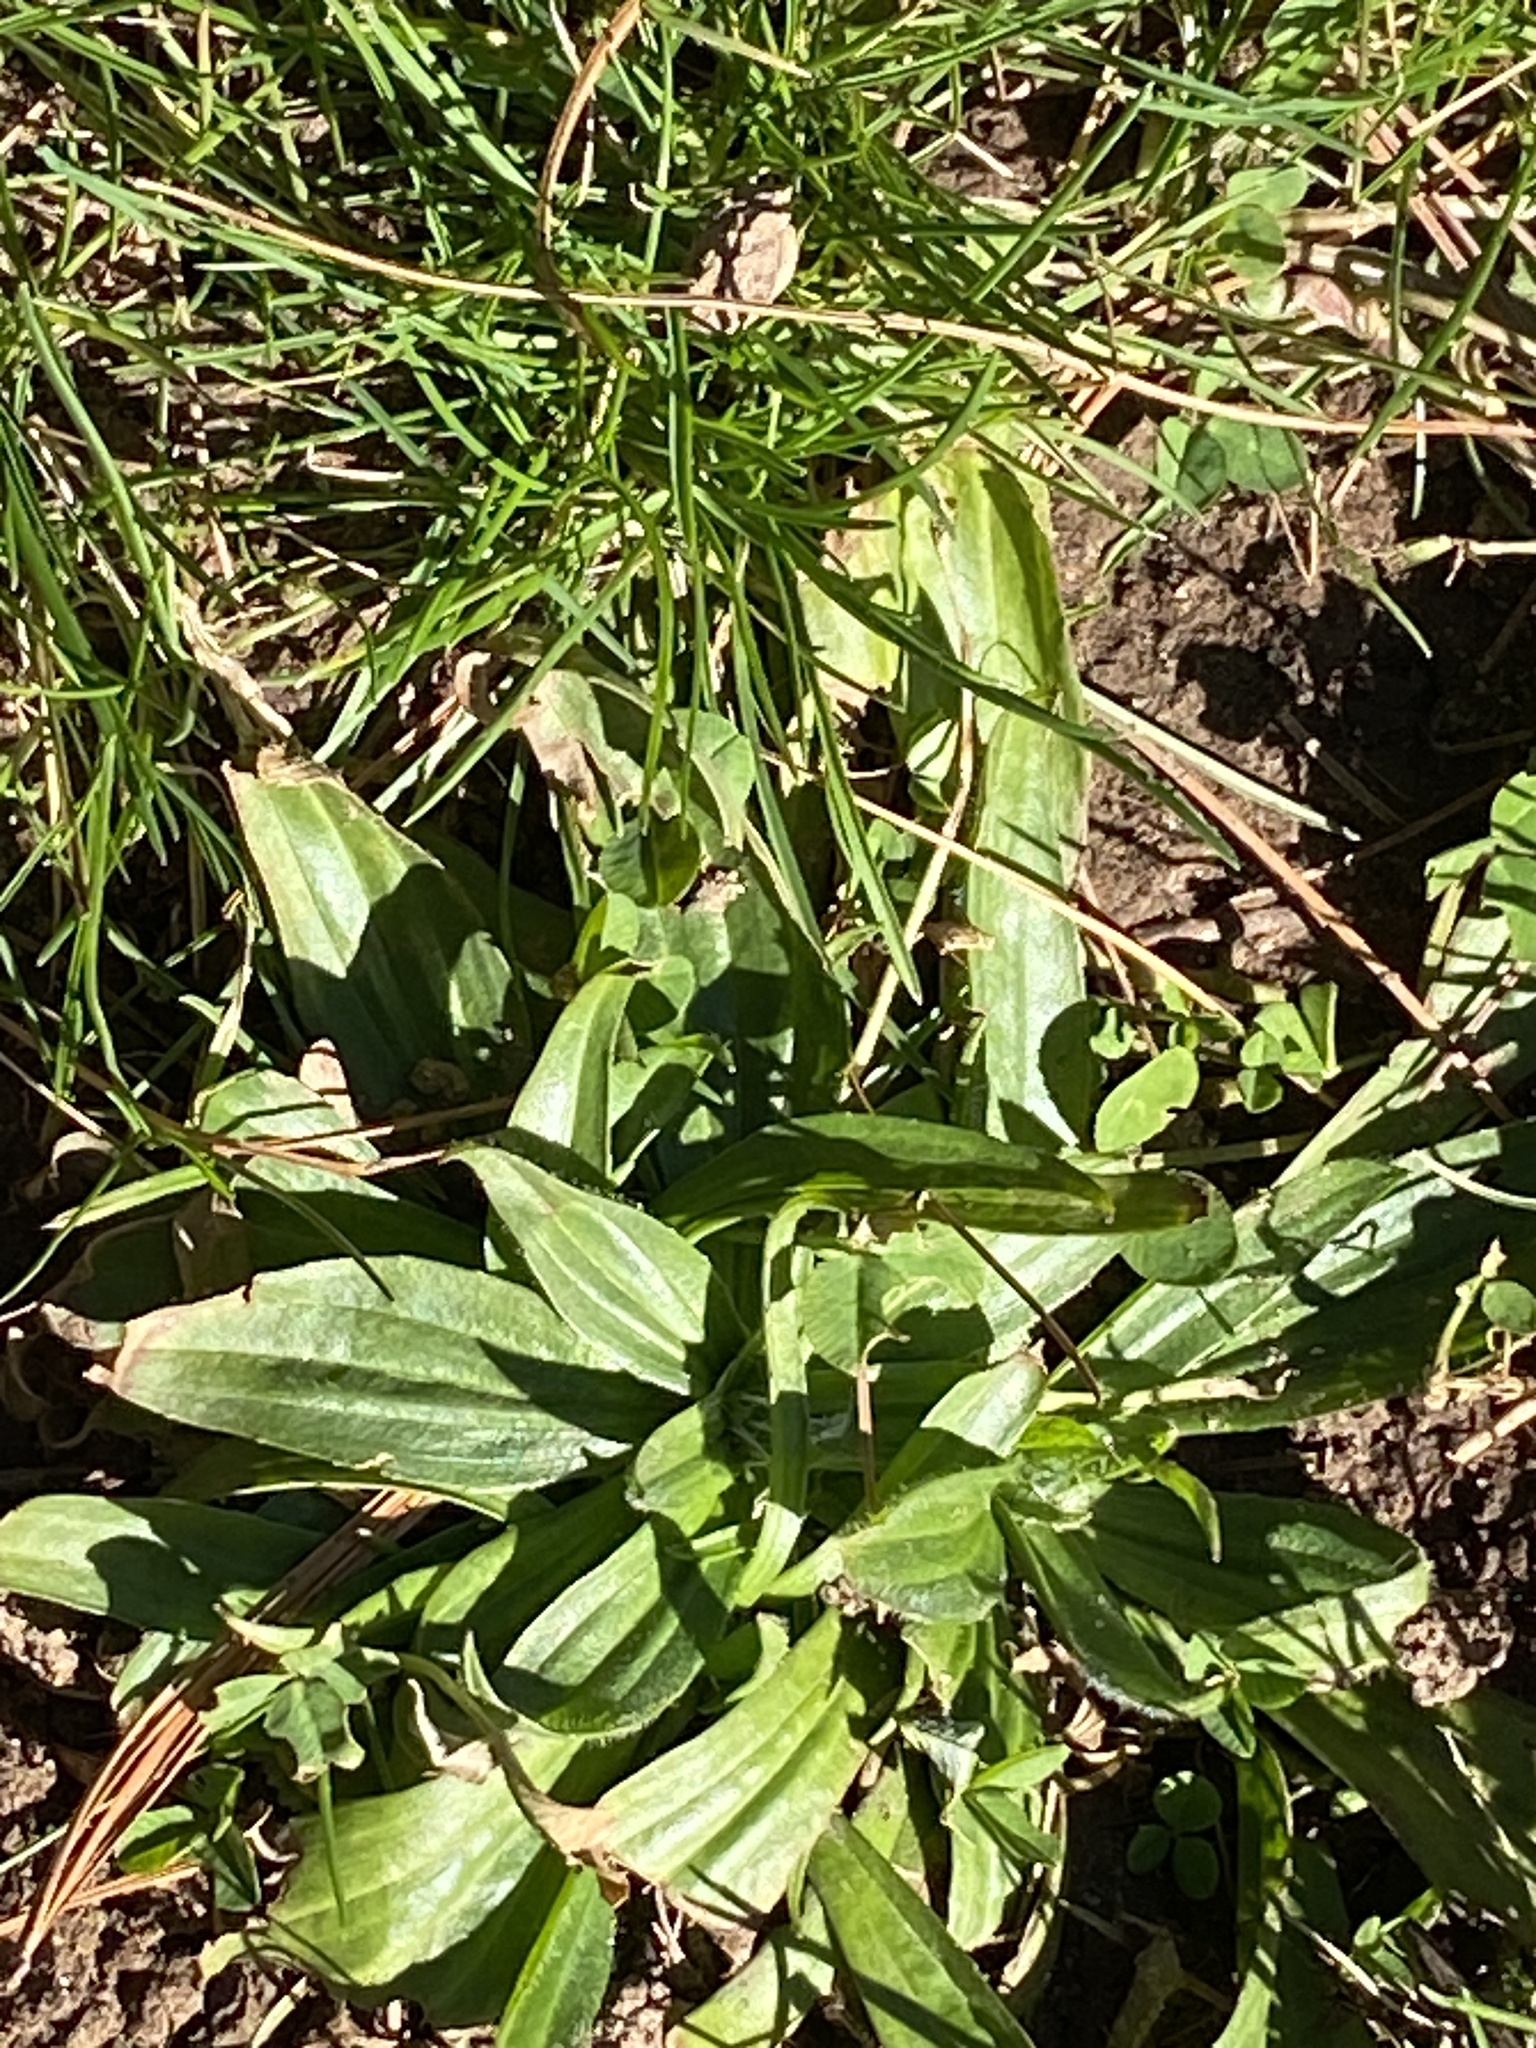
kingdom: Plantae
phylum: Tracheophyta
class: Magnoliopsida
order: Lamiales
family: Plantaginaceae
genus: Plantago
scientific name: Plantago lanceolata
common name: Ribwort plantain
